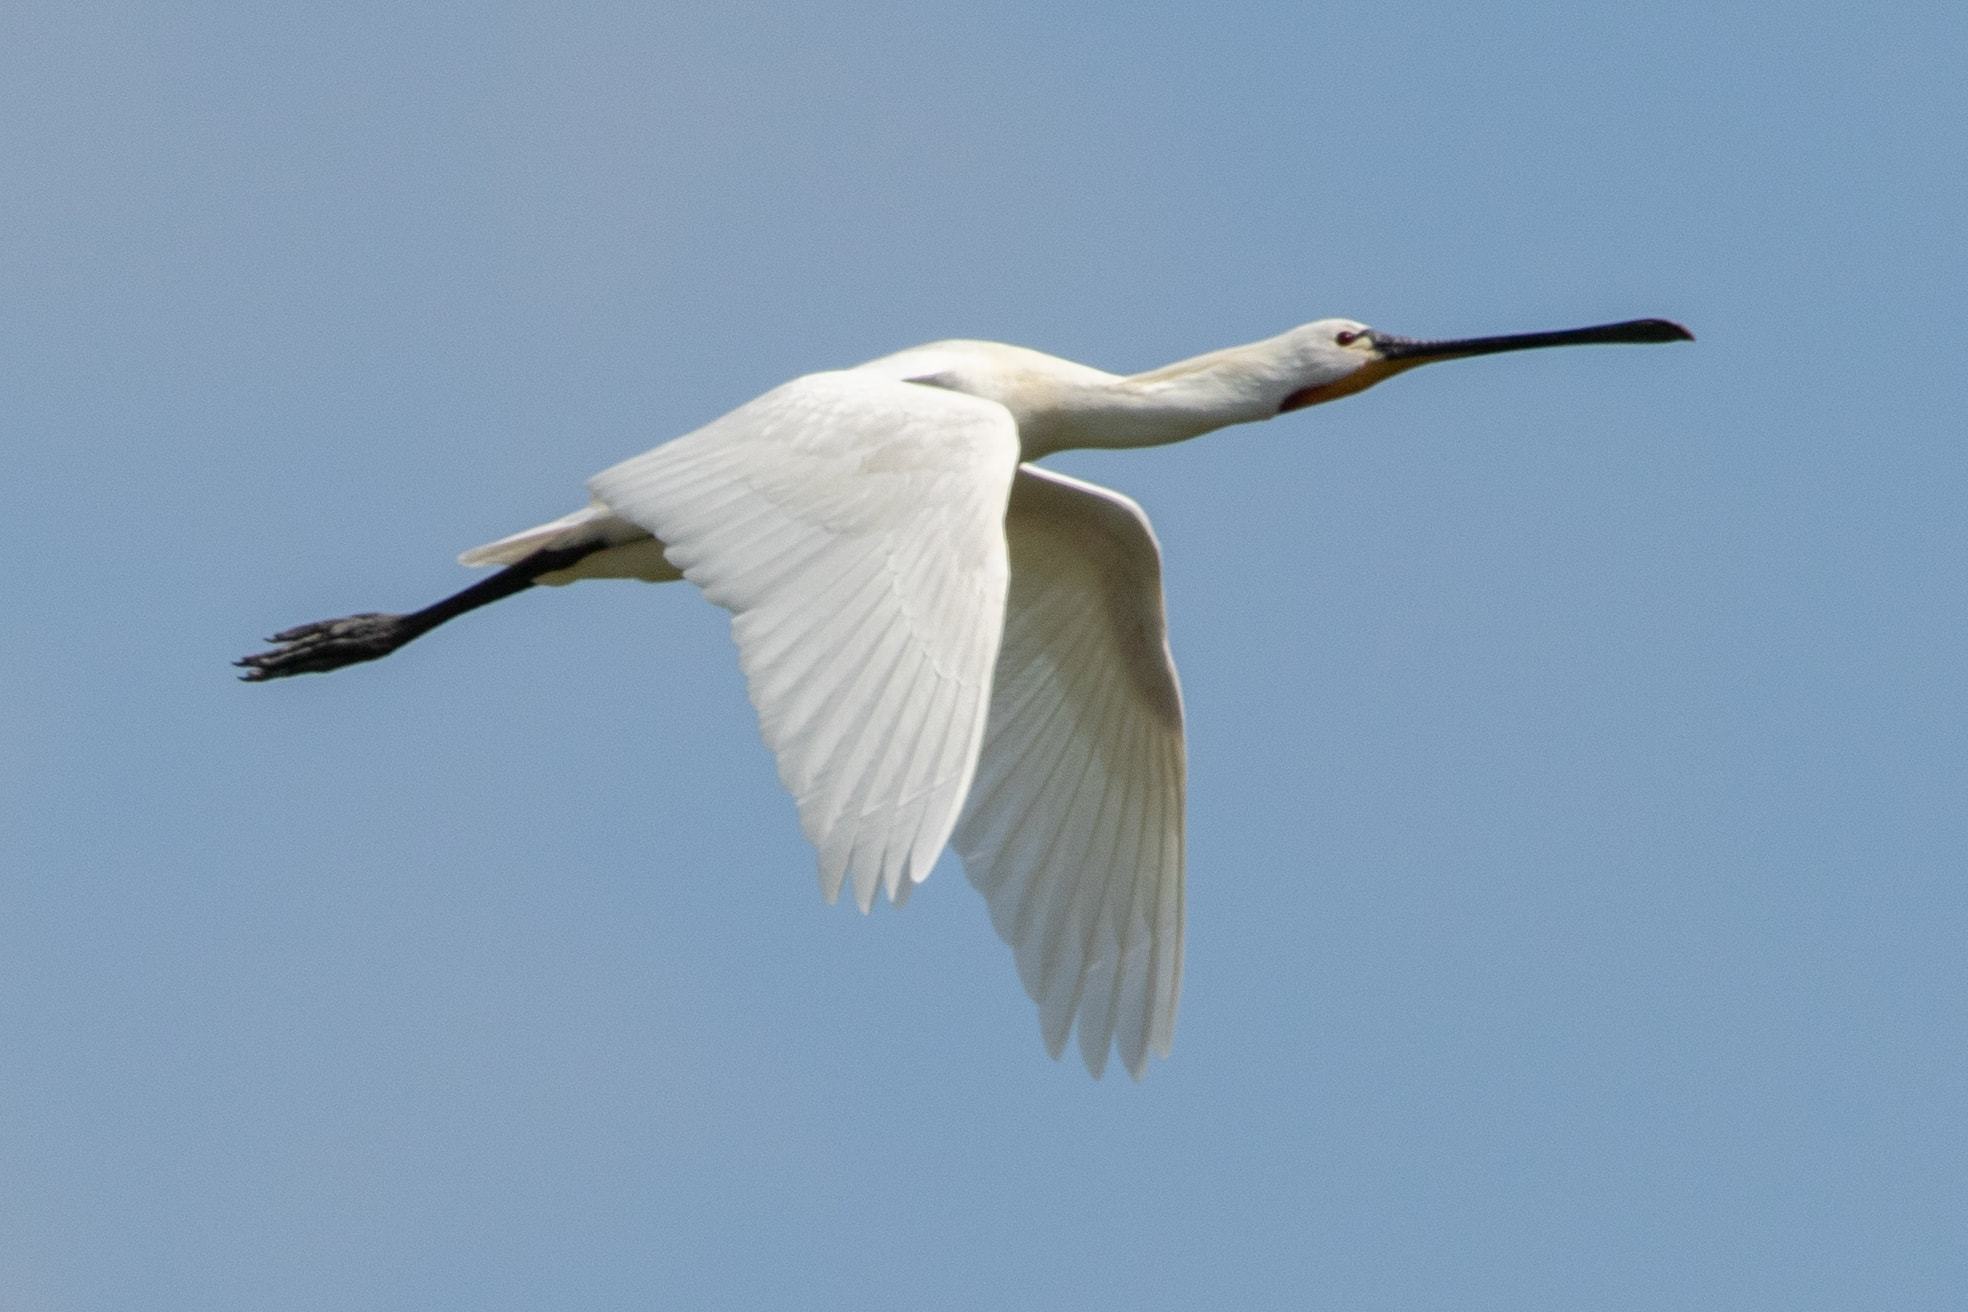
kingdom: Animalia
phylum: Chordata
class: Aves
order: Pelecaniformes
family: Threskiornithidae
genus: Platalea
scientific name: Platalea leucorodia
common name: Eurasian spoonbill
